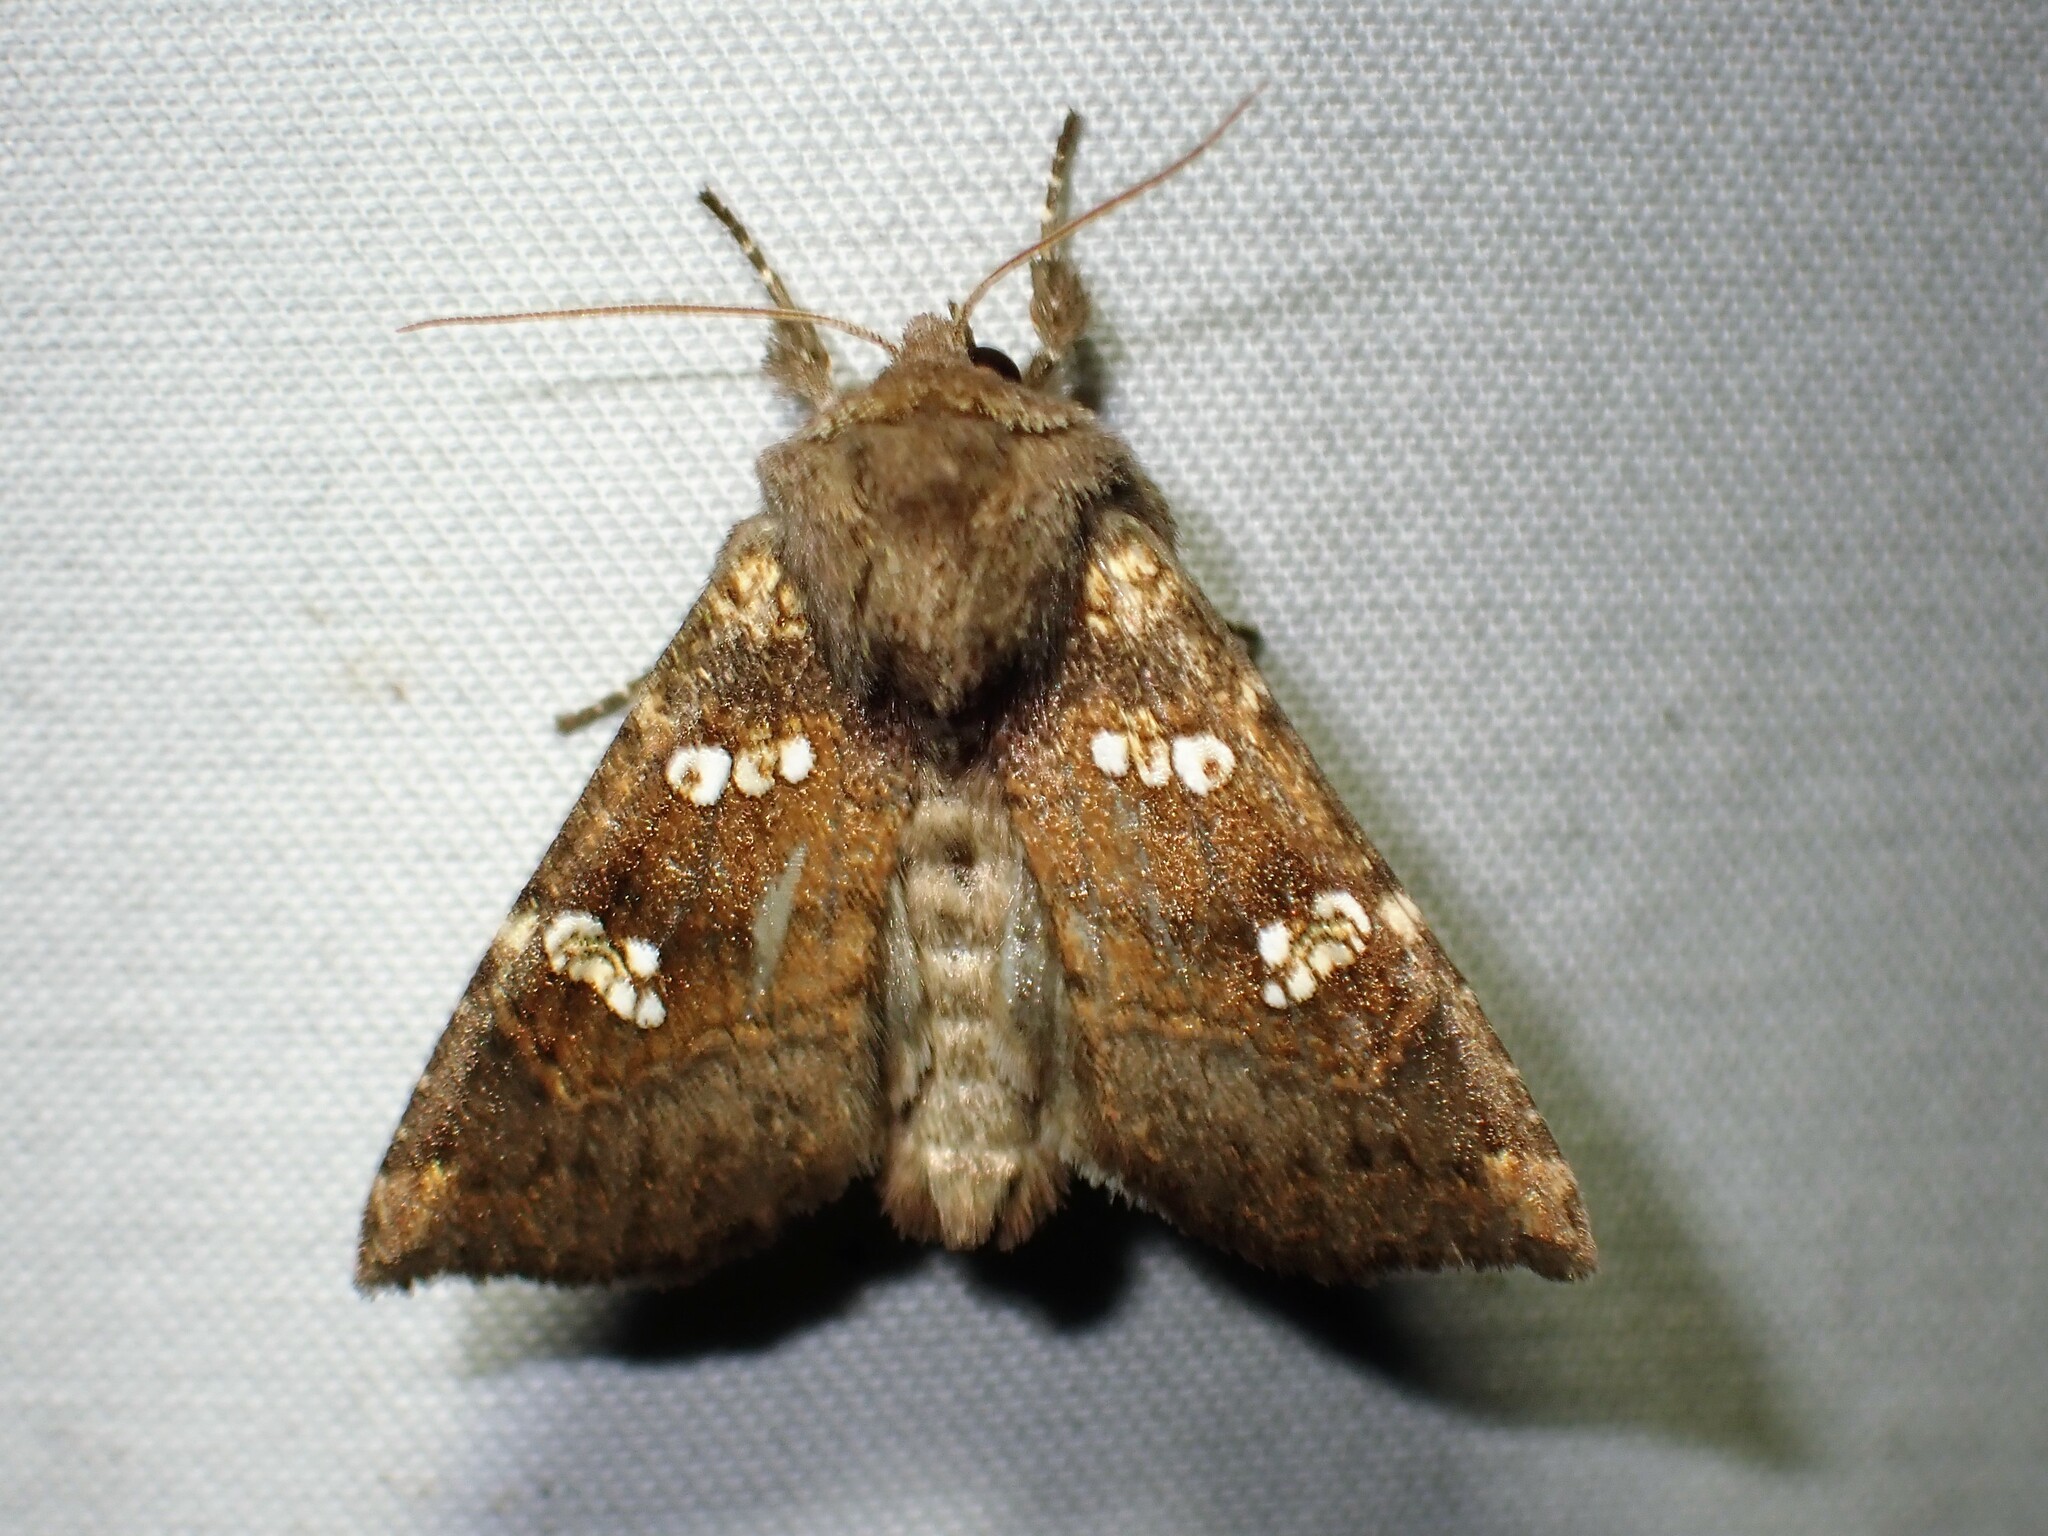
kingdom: Animalia
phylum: Arthropoda
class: Insecta
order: Lepidoptera
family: Noctuidae
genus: Papaipema
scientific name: Papaipema unimoda
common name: Meadow rue borer moth
